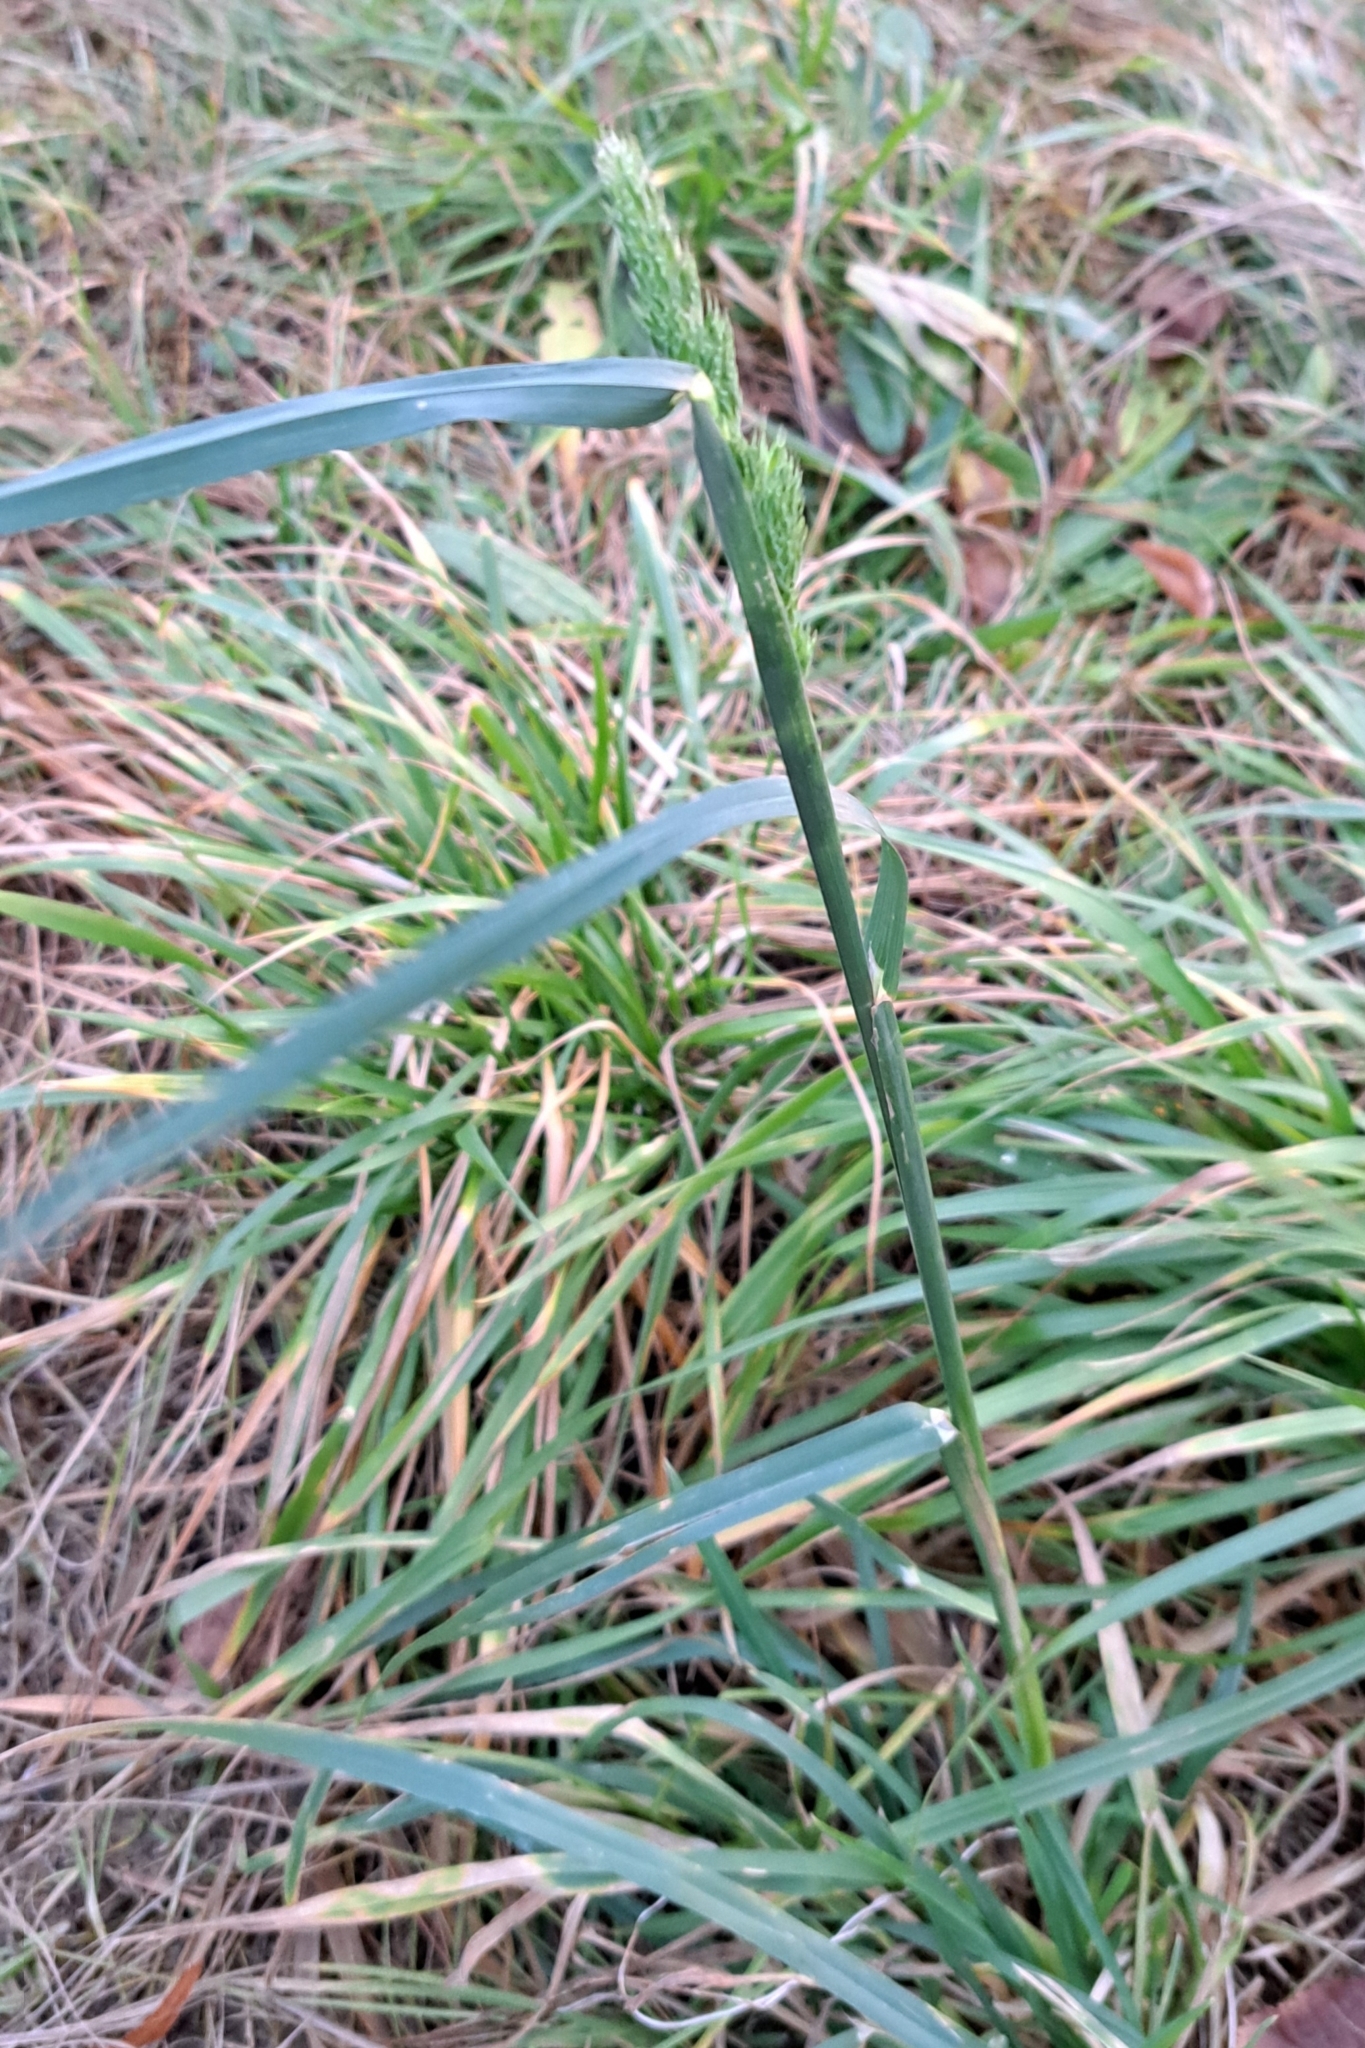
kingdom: Plantae
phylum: Tracheophyta
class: Liliopsida
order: Poales
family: Poaceae
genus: Dactylis
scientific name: Dactylis glomerata
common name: Orchardgrass
